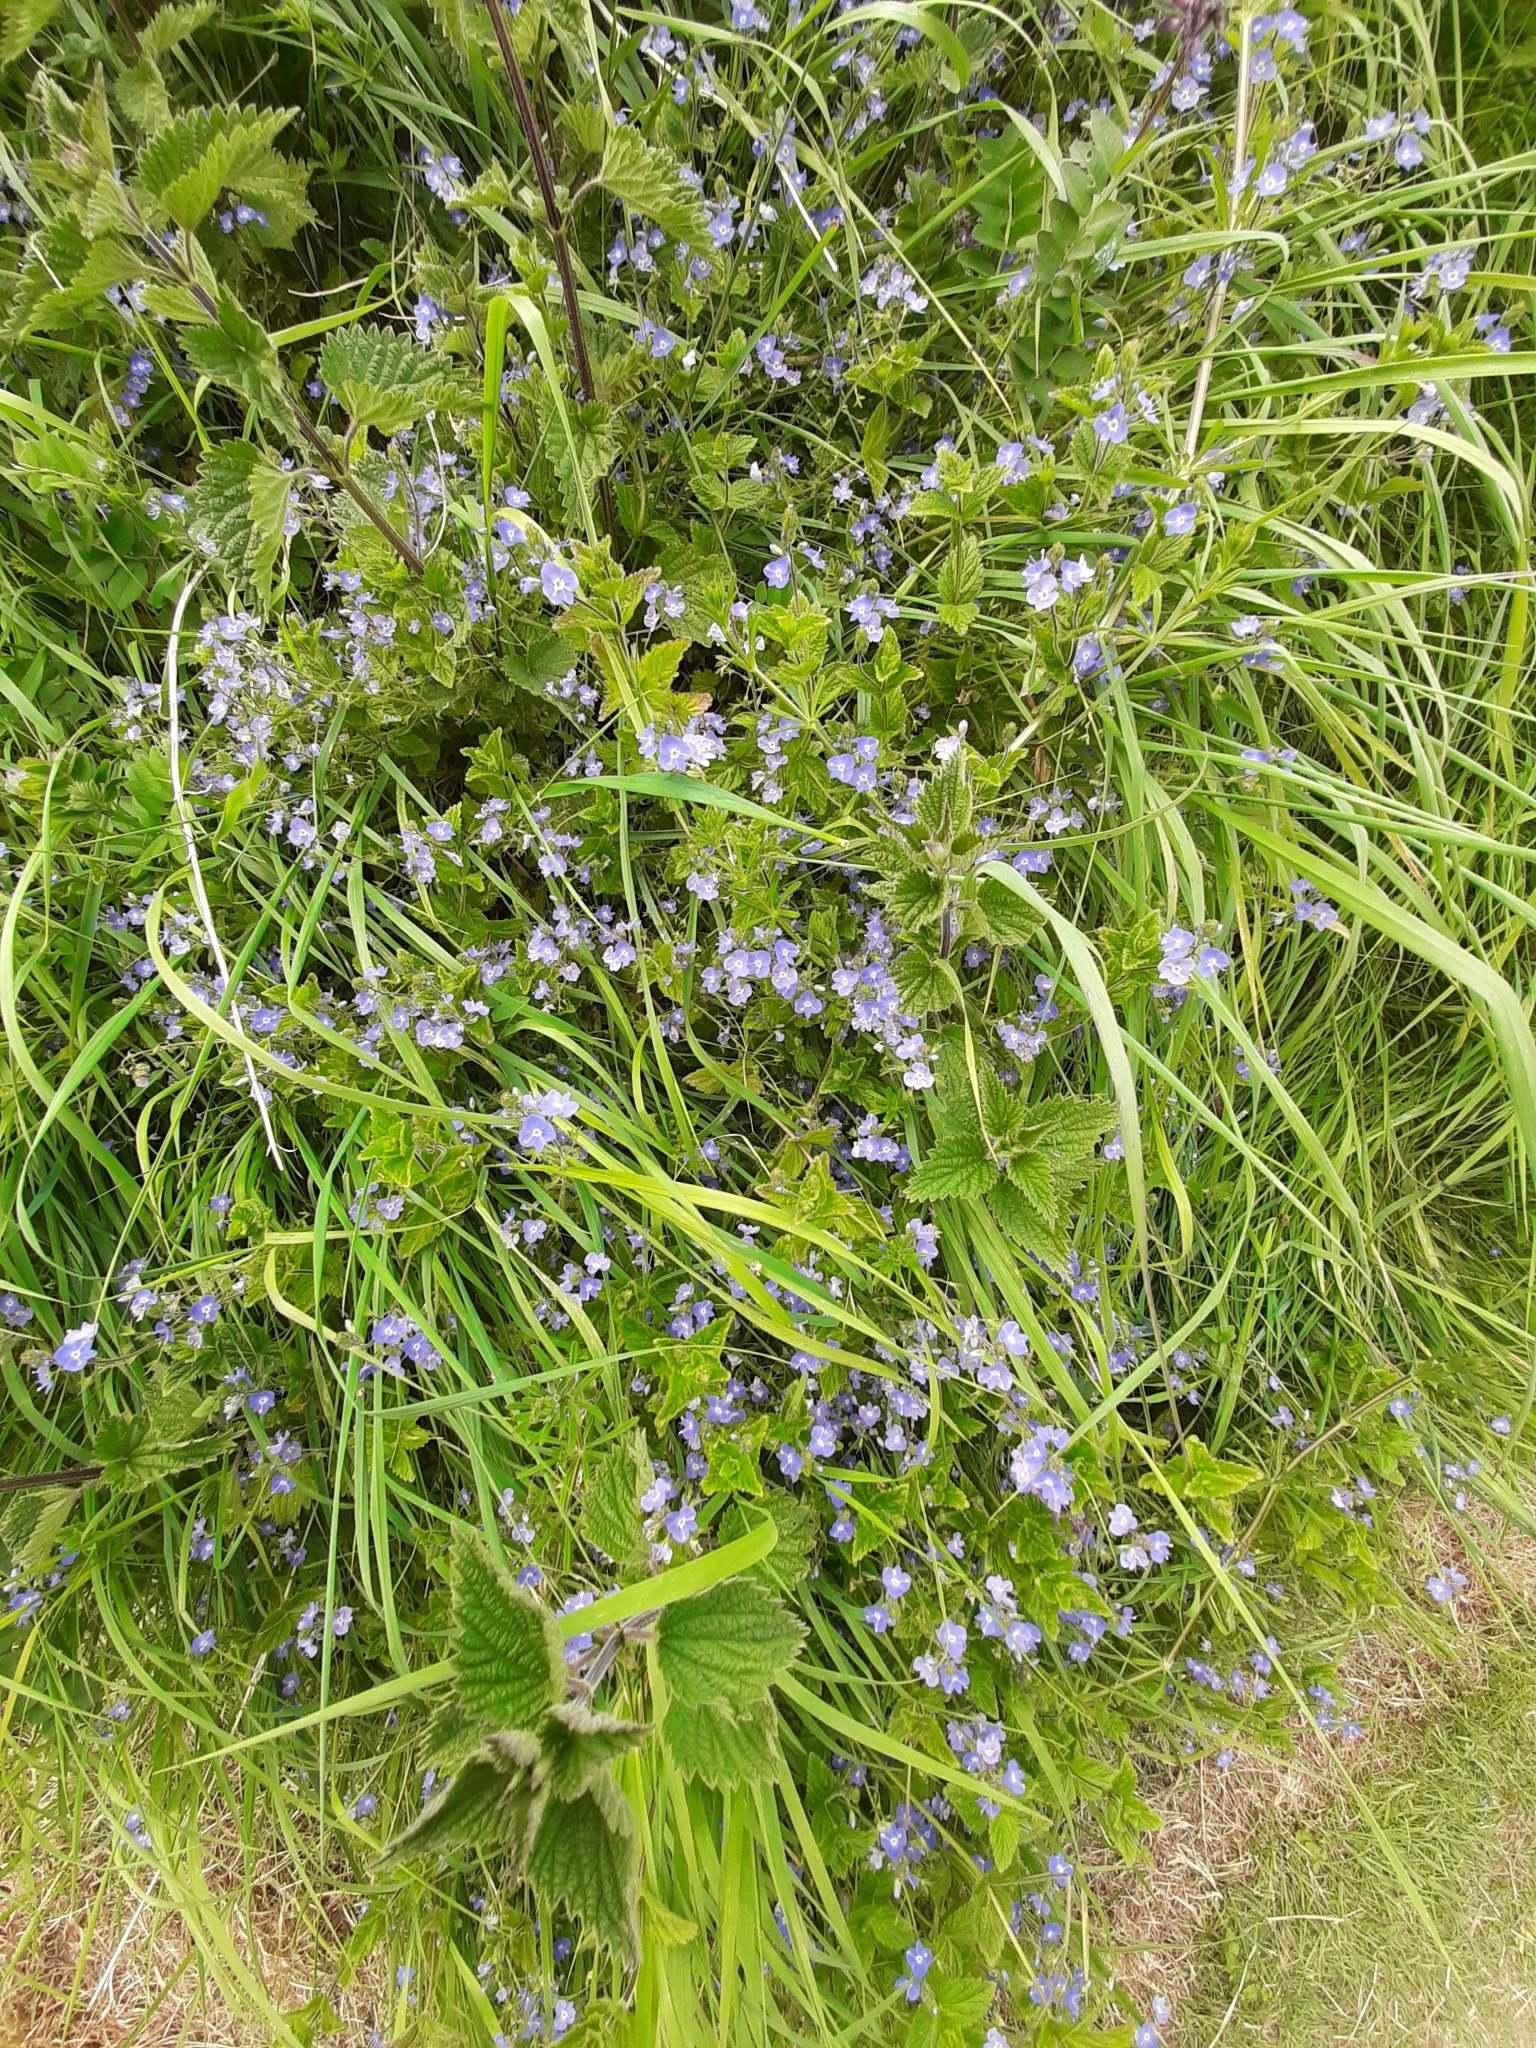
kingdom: Plantae
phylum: Tracheophyta
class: Magnoliopsida
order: Lamiales
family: Plantaginaceae
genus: Veronica
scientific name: Veronica chamaedrys
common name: Germander speedwell
